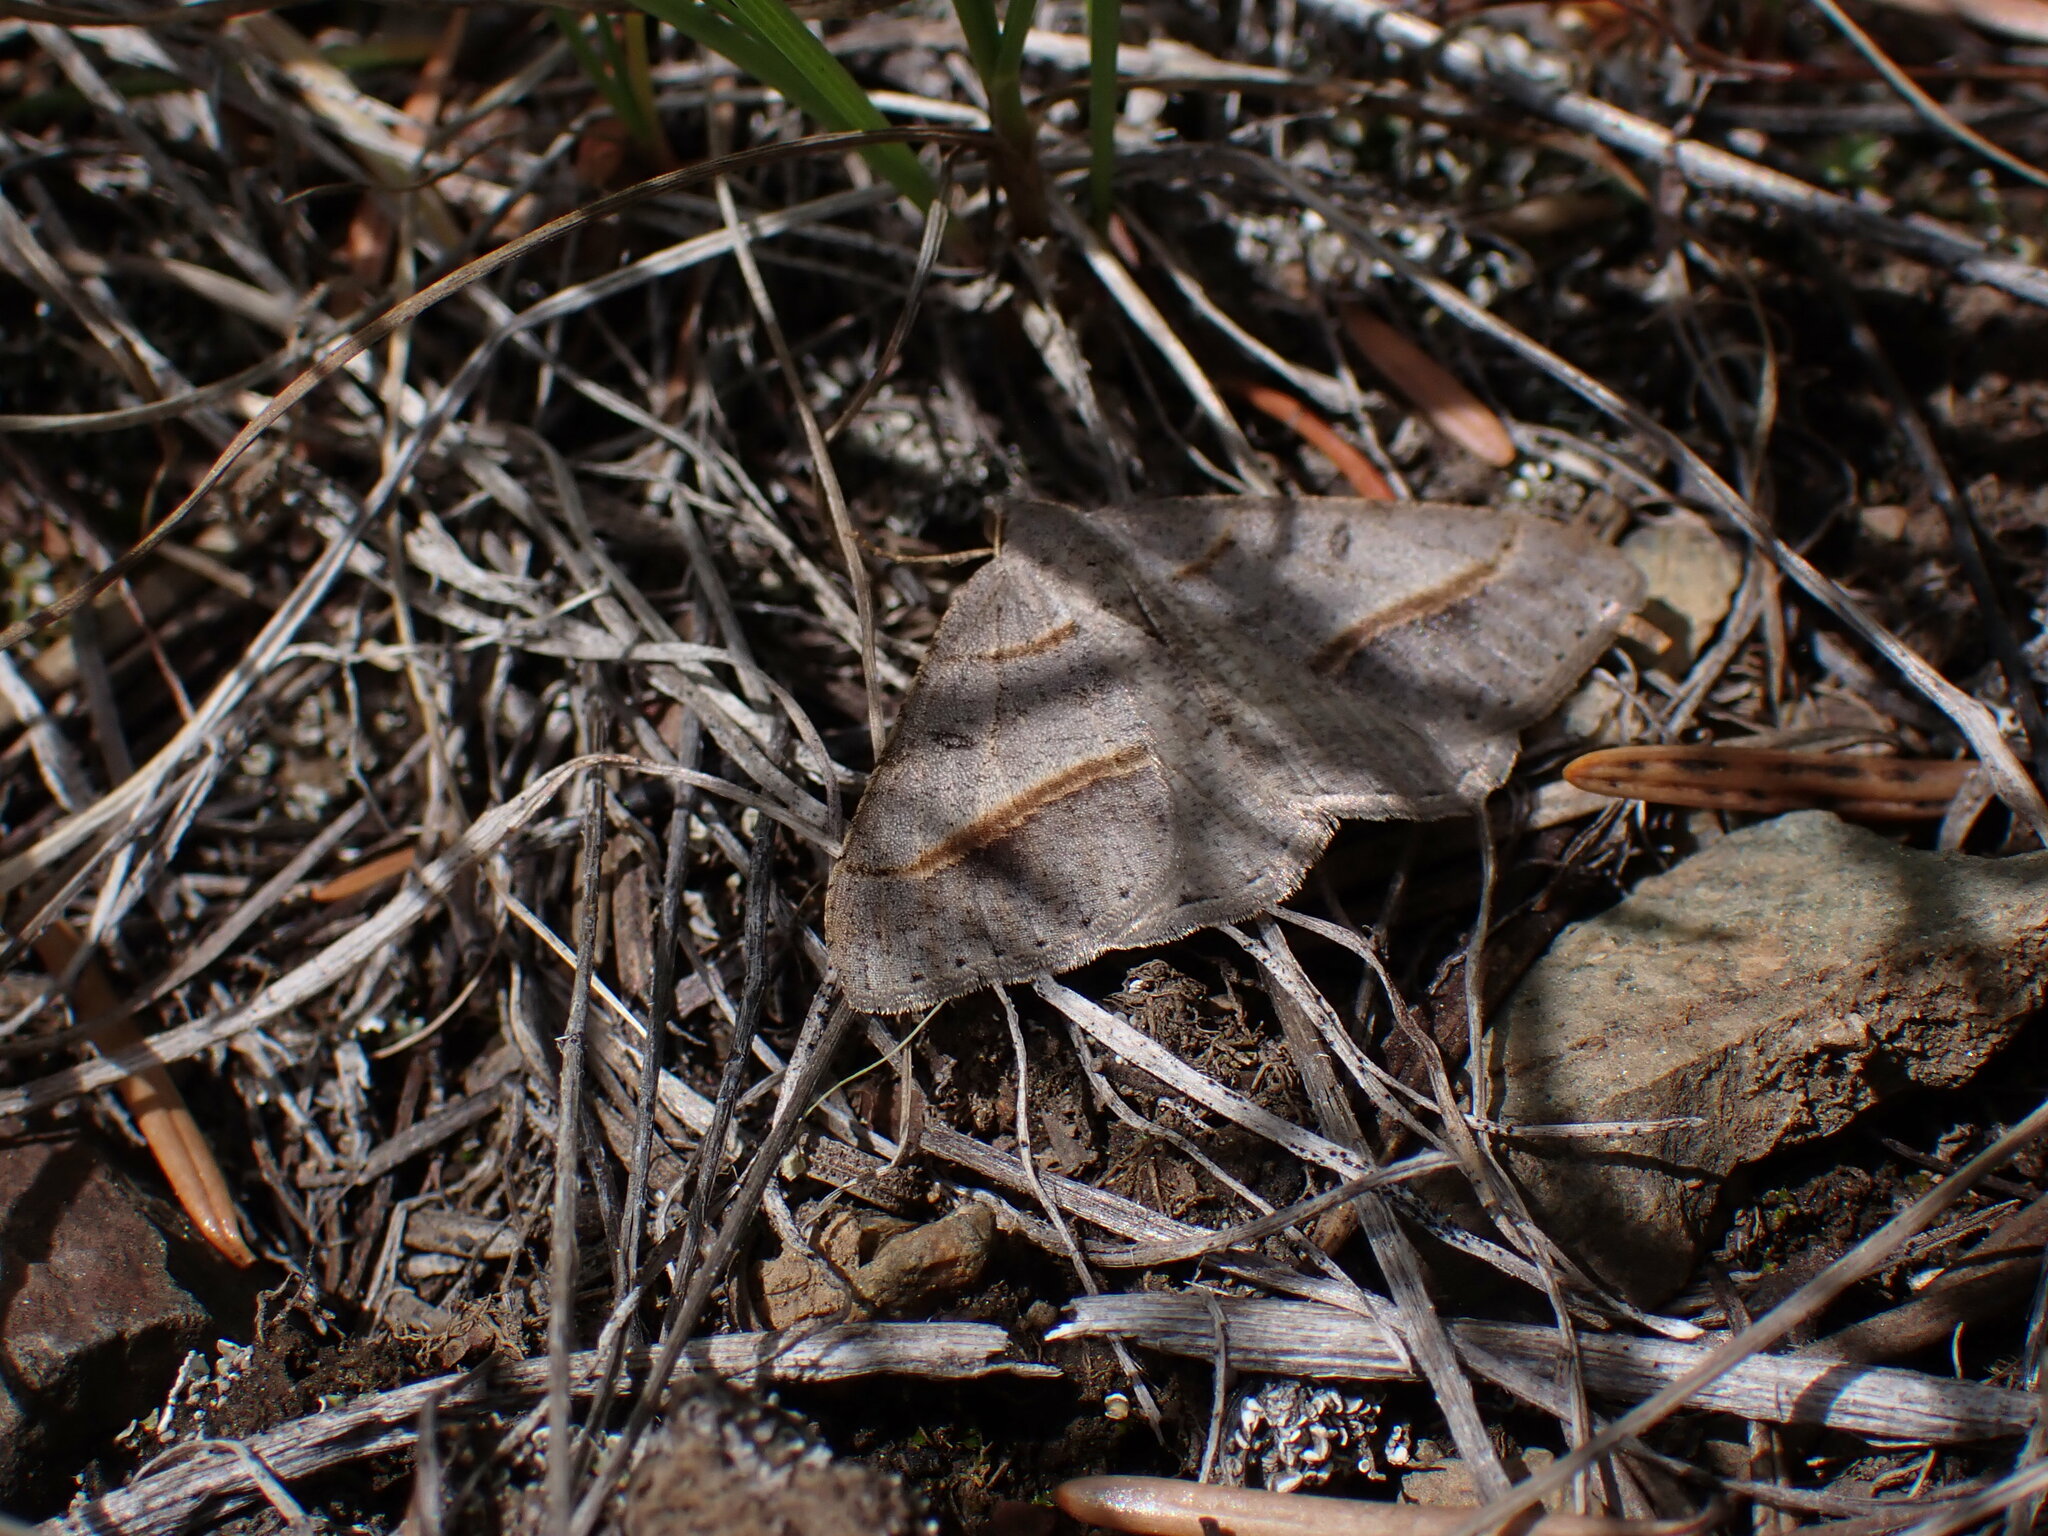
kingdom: Animalia
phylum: Arthropoda
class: Insecta
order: Lepidoptera
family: Geometridae
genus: Digrammia
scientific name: Digrammia neptaria
